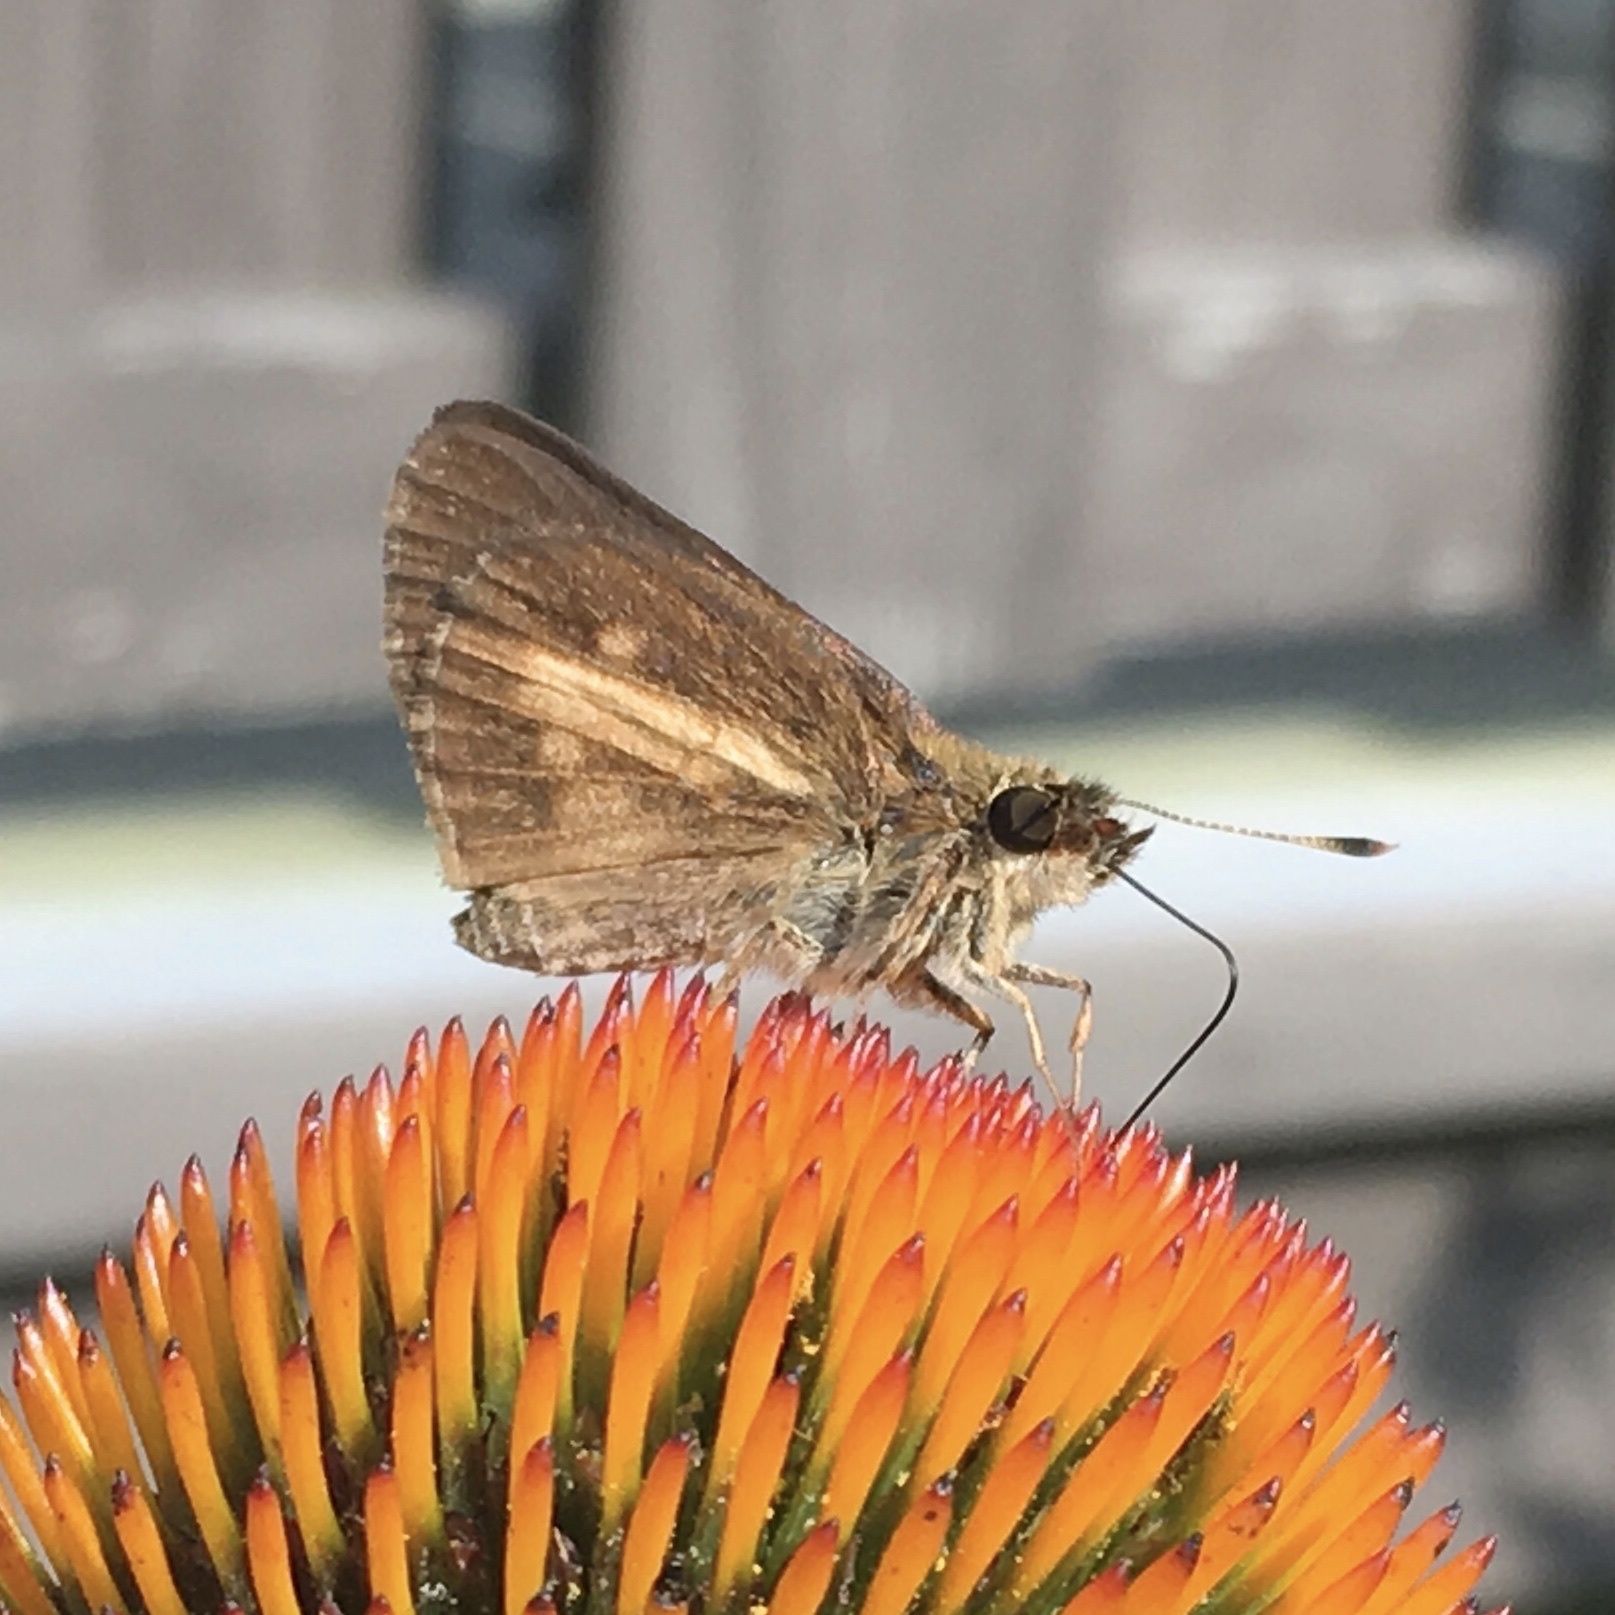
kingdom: Animalia
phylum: Arthropoda
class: Insecta
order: Lepidoptera
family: Hesperiidae
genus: Poanes
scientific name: Poanes viator
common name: Broad-winged skipper
